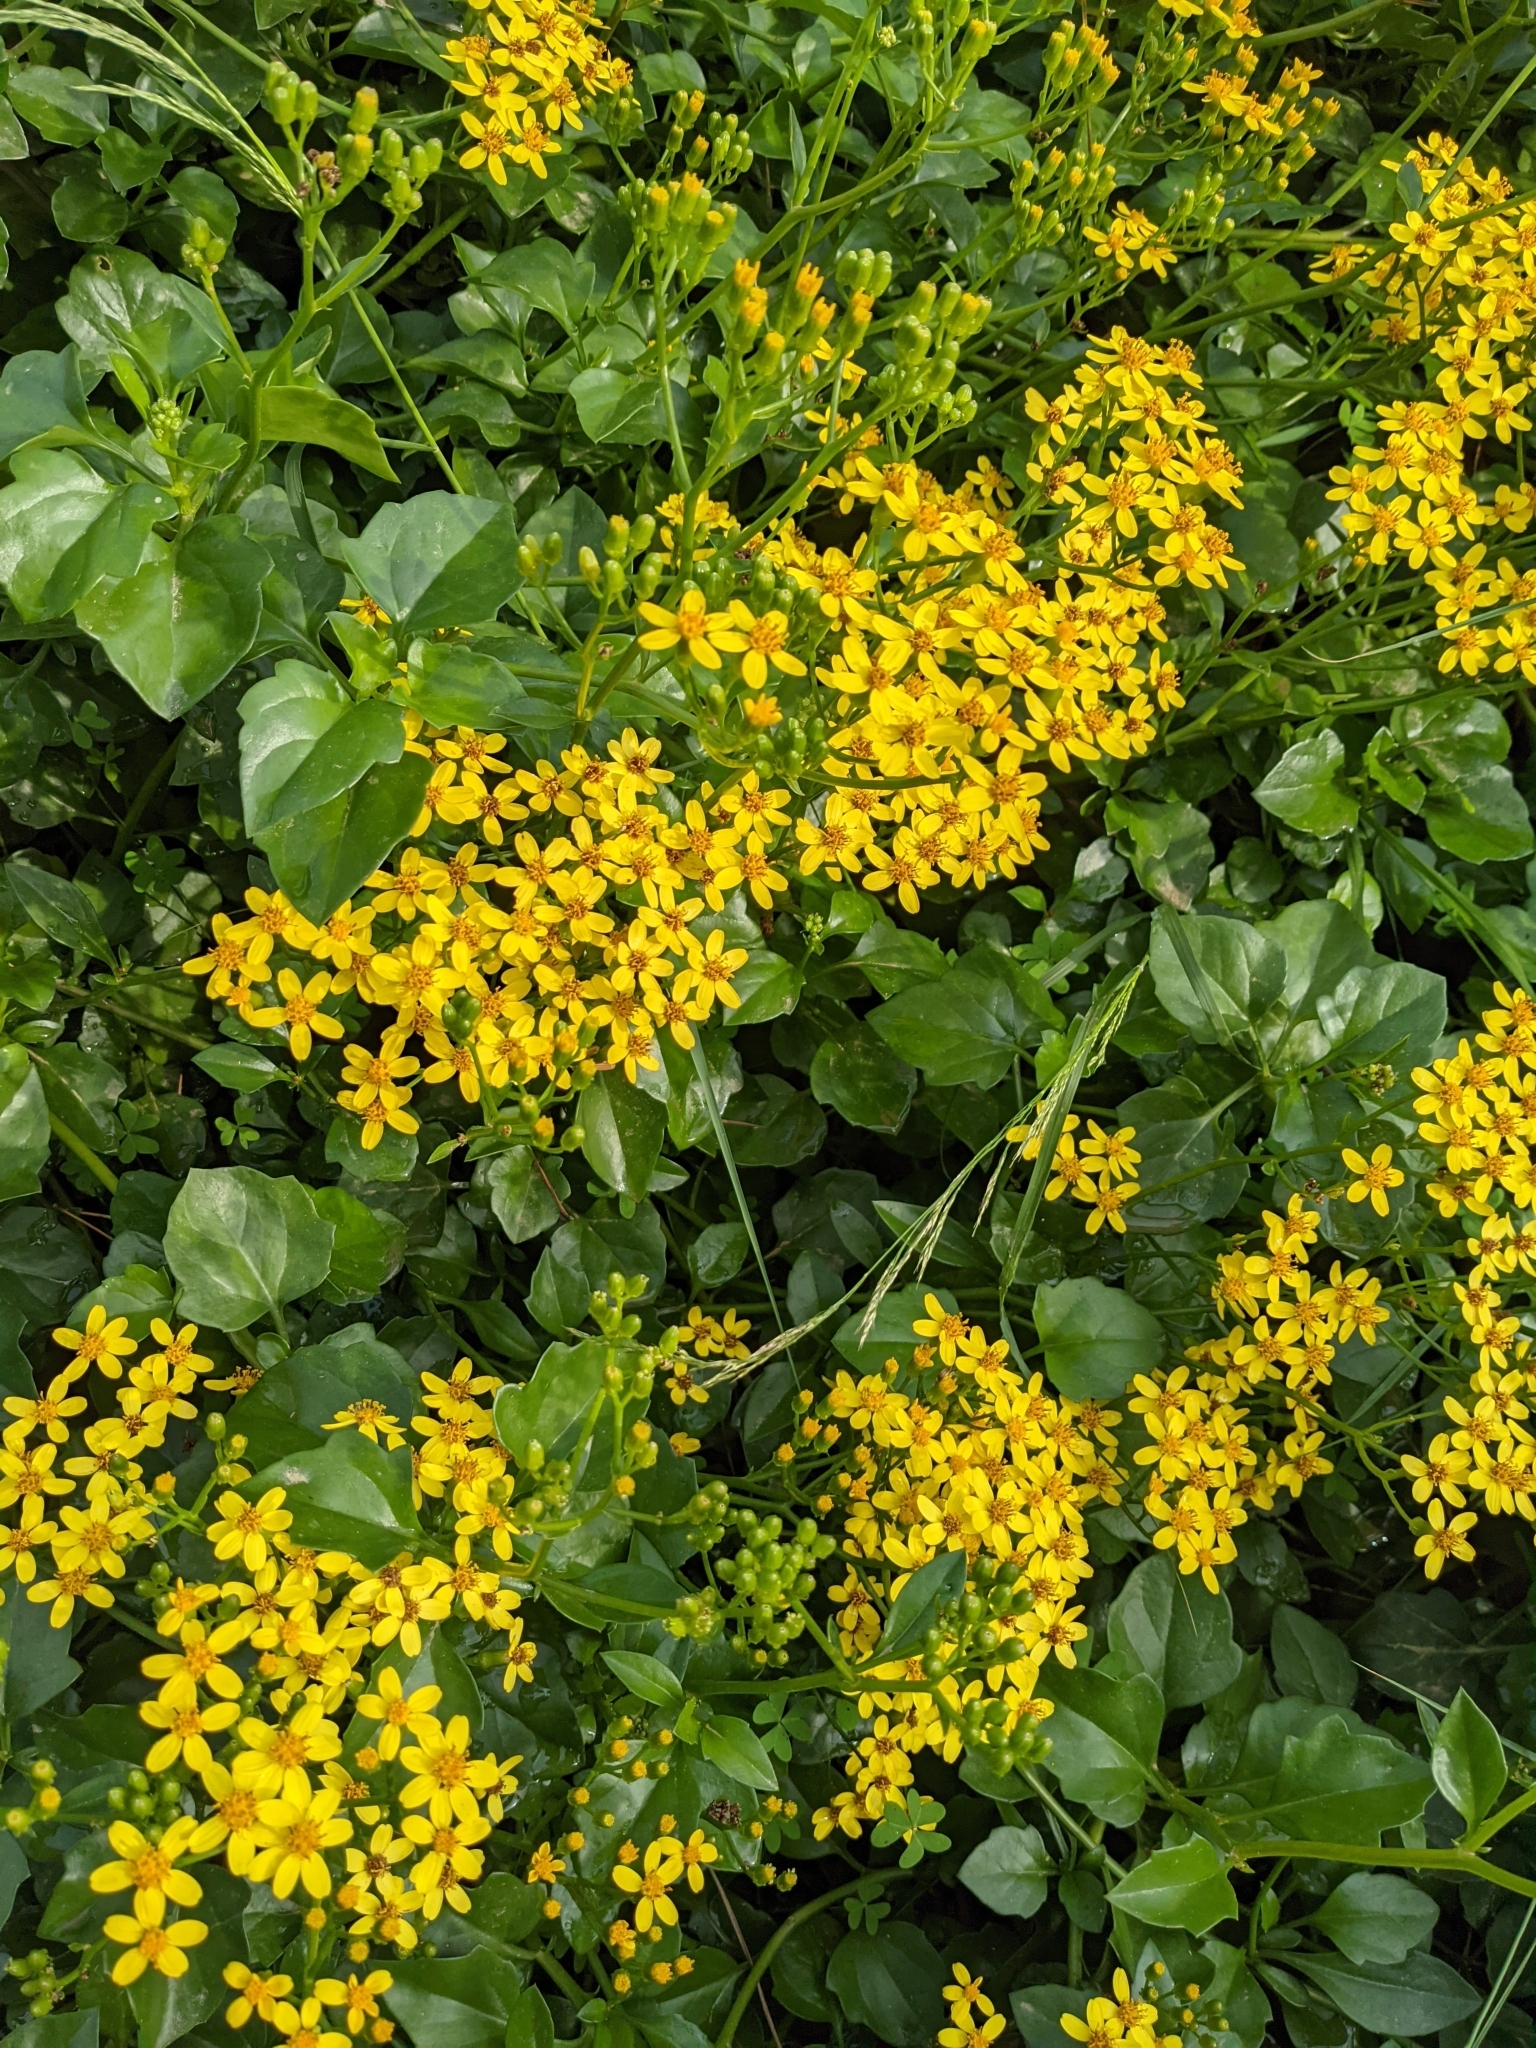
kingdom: Plantae
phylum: Tracheophyta
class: Magnoliopsida
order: Asterales
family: Asteraceae
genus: Senecio
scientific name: Senecio angulatus
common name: Climbing groundsel
